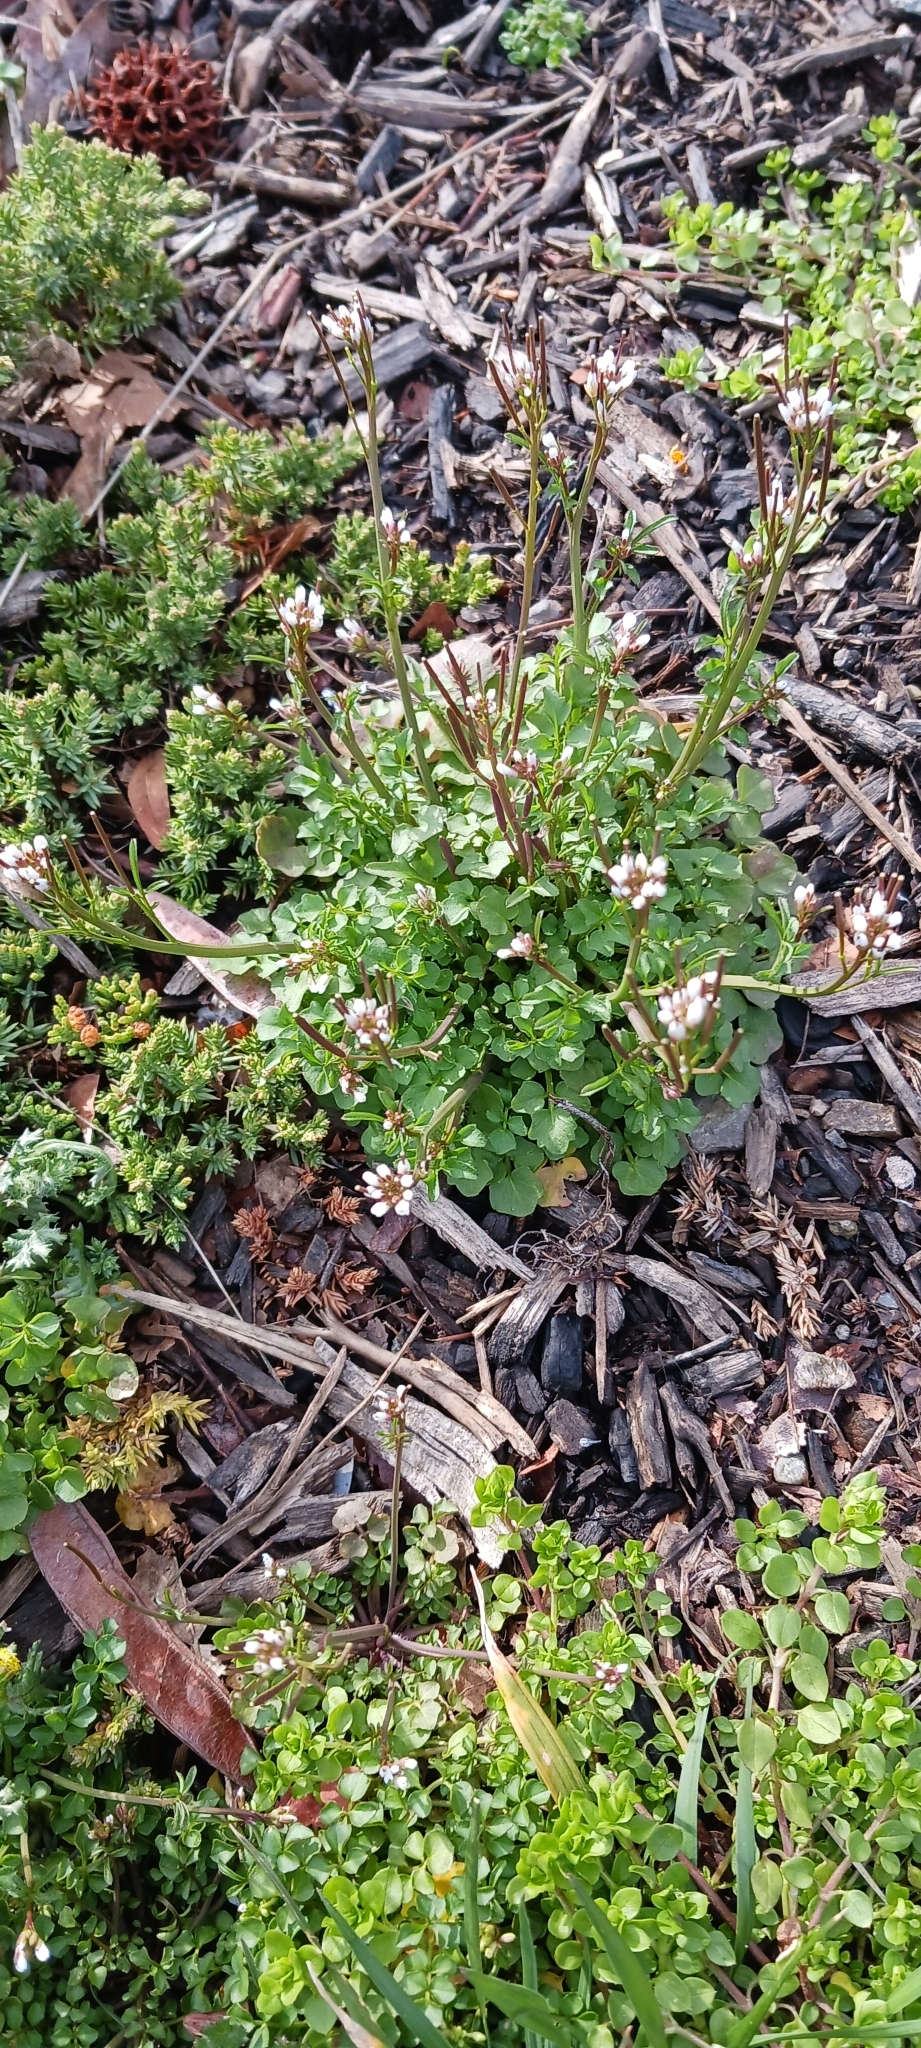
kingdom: Plantae
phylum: Tracheophyta
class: Magnoliopsida
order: Brassicales
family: Brassicaceae
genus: Cardamine
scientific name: Cardamine hirsuta
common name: Hairy bittercress
